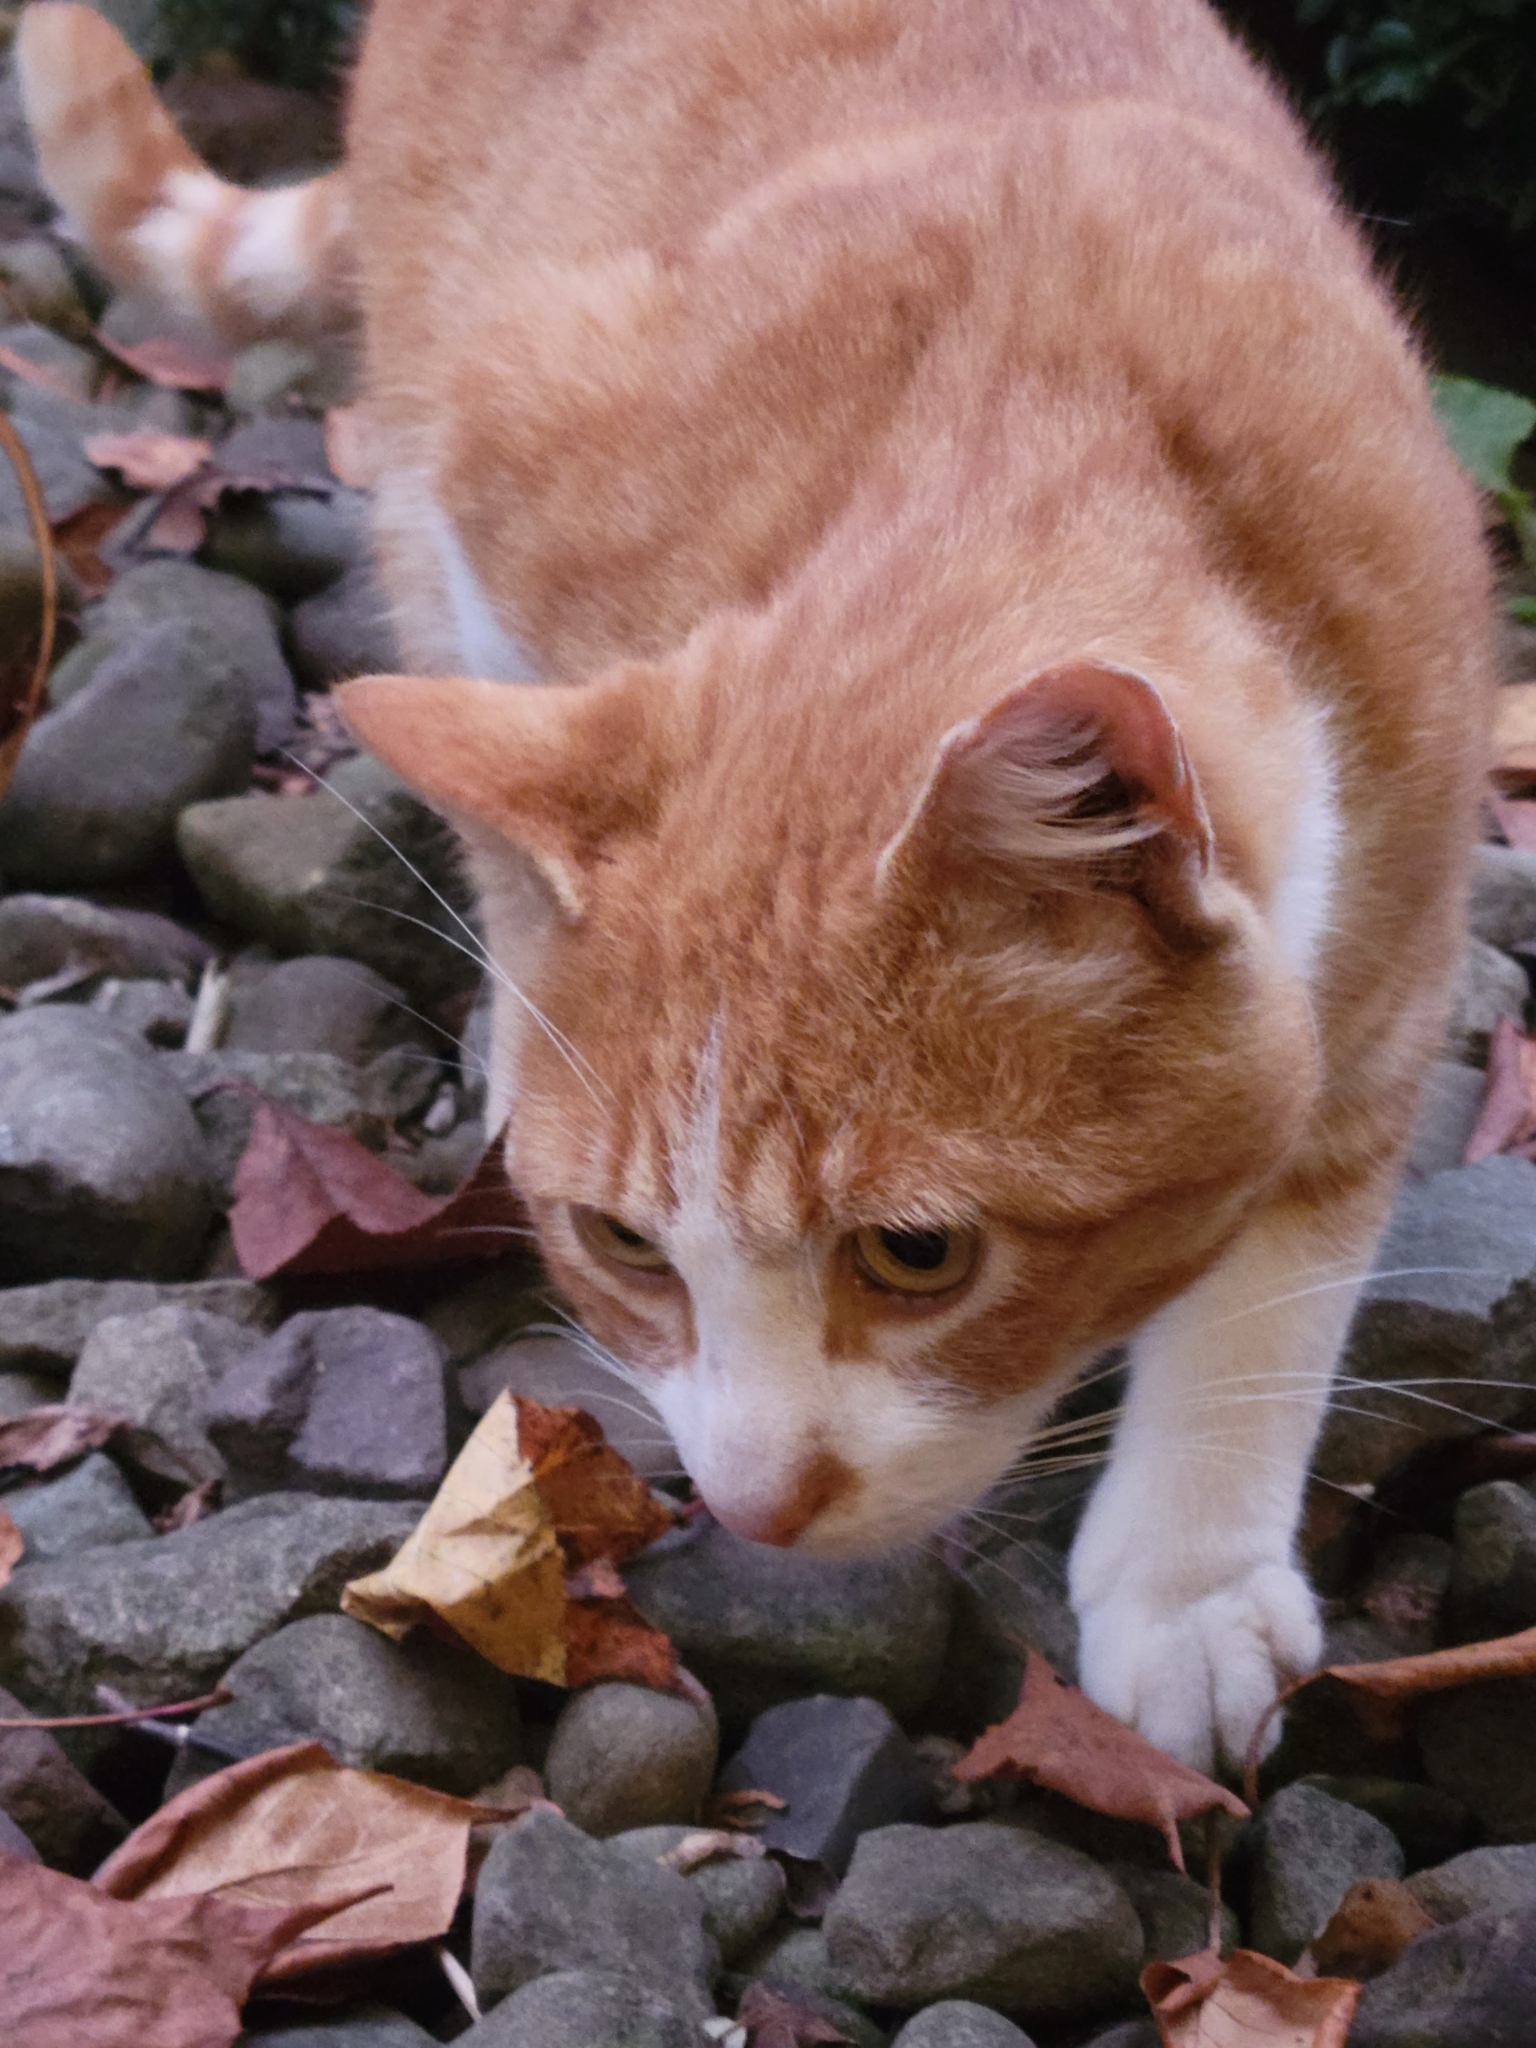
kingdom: Animalia
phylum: Chordata
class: Mammalia
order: Carnivora
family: Felidae
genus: Felis
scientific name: Felis catus
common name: Domestic cat
